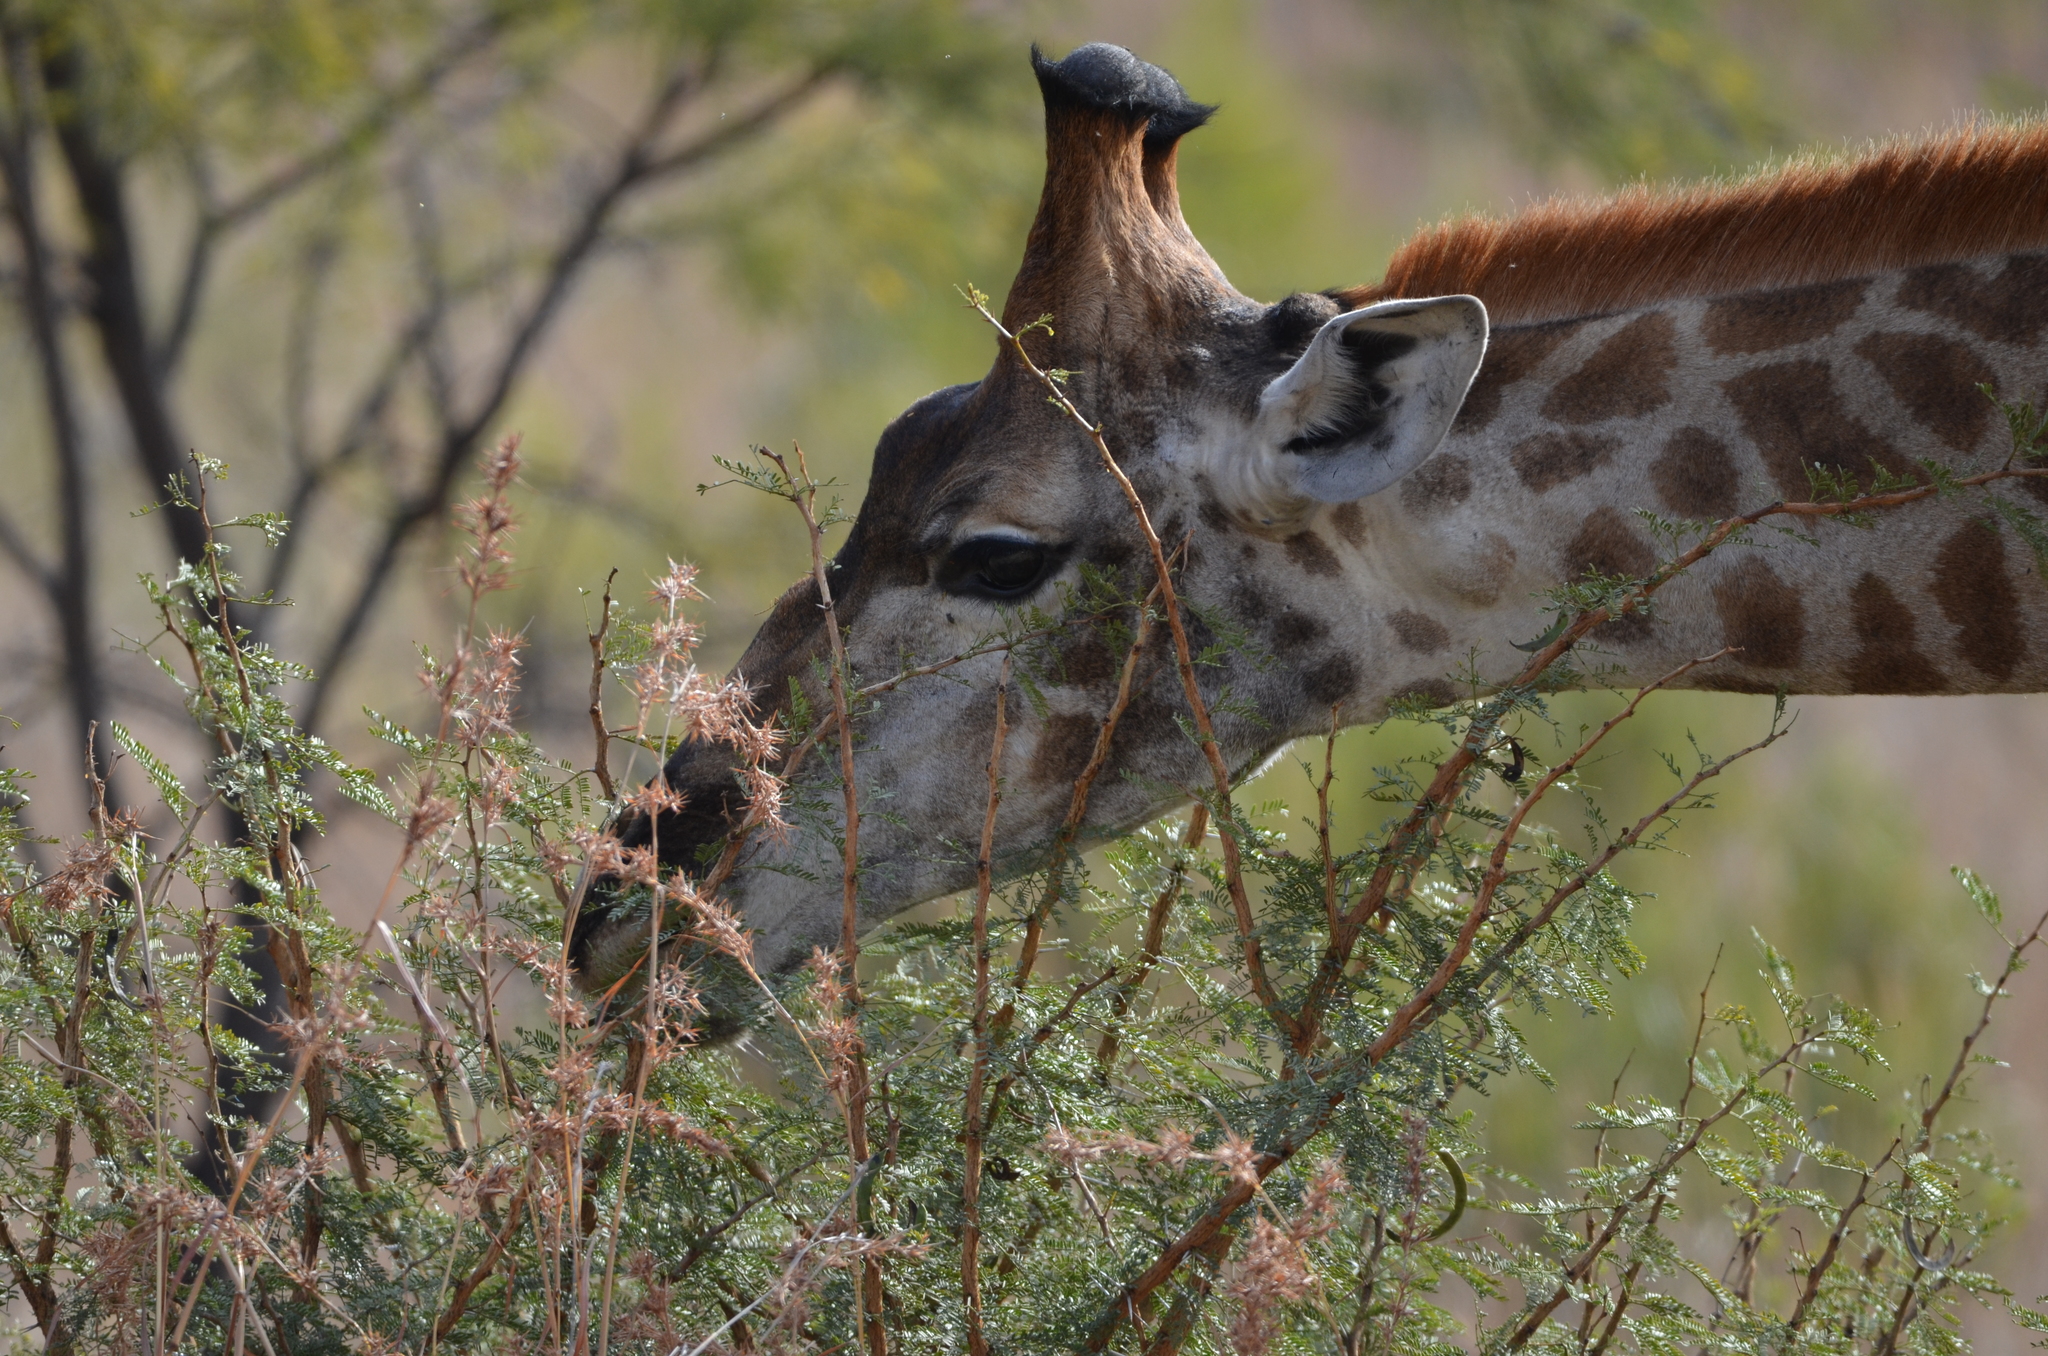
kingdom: Animalia
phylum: Chordata
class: Mammalia
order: Artiodactyla
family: Giraffidae
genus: Giraffa
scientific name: Giraffa giraffa
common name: Southern giraffe
